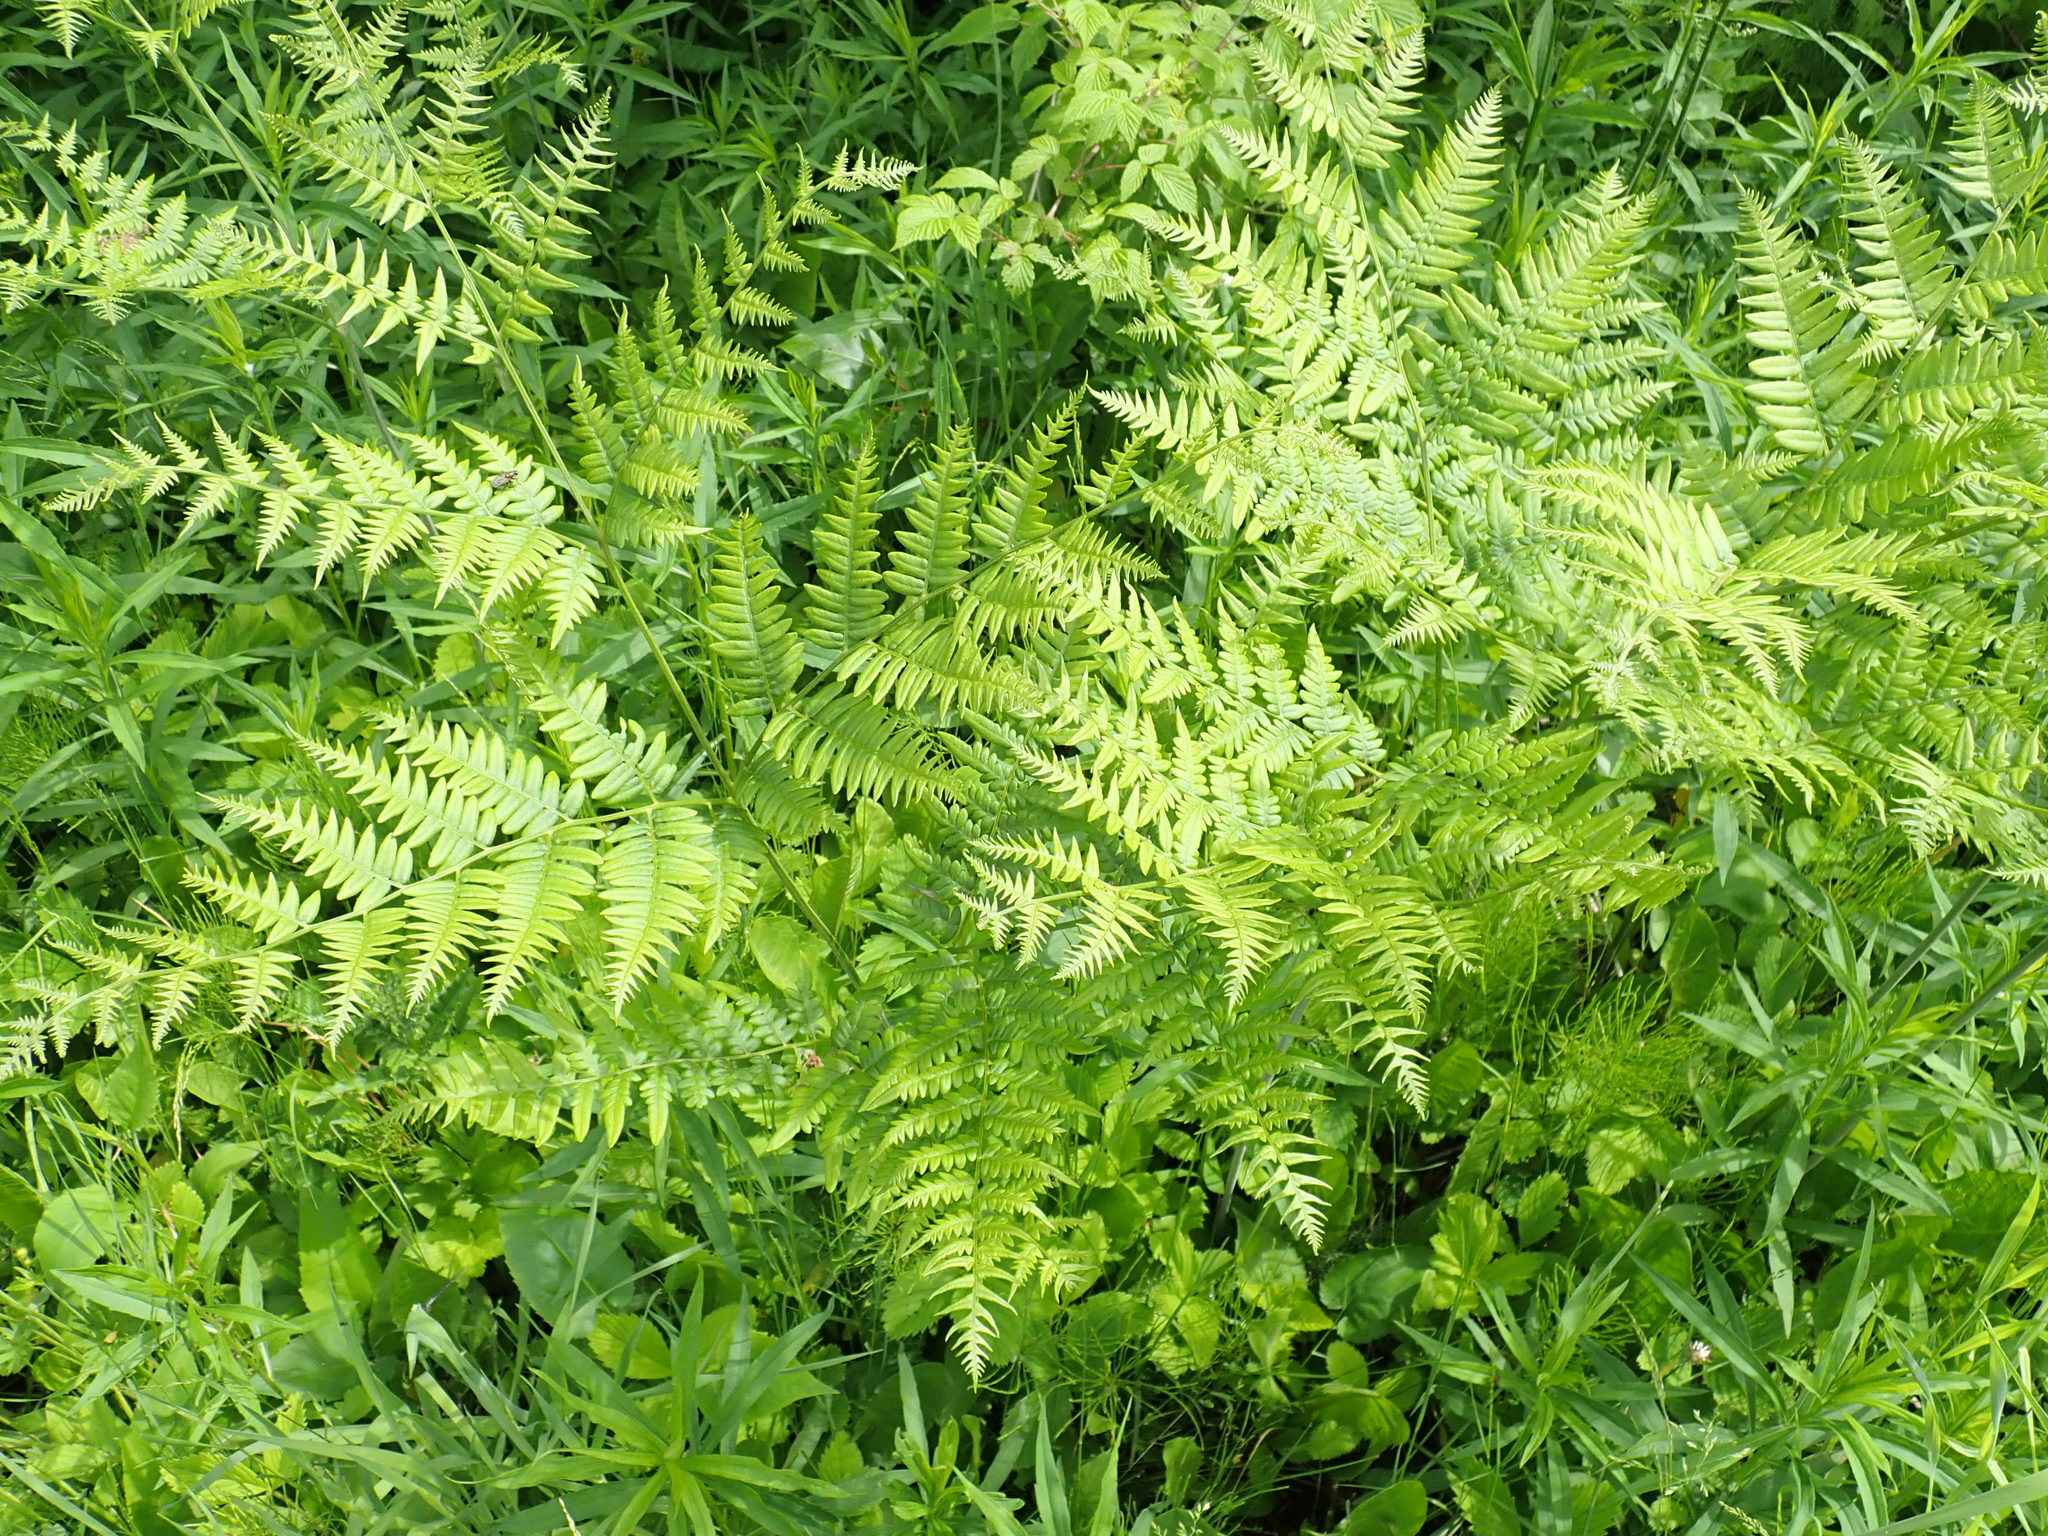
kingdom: Plantae
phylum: Tracheophyta
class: Polypodiopsida
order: Polypodiales
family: Dennstaedtiaceae
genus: Pteridium
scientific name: Pteridium aquilinum
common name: Bracken
